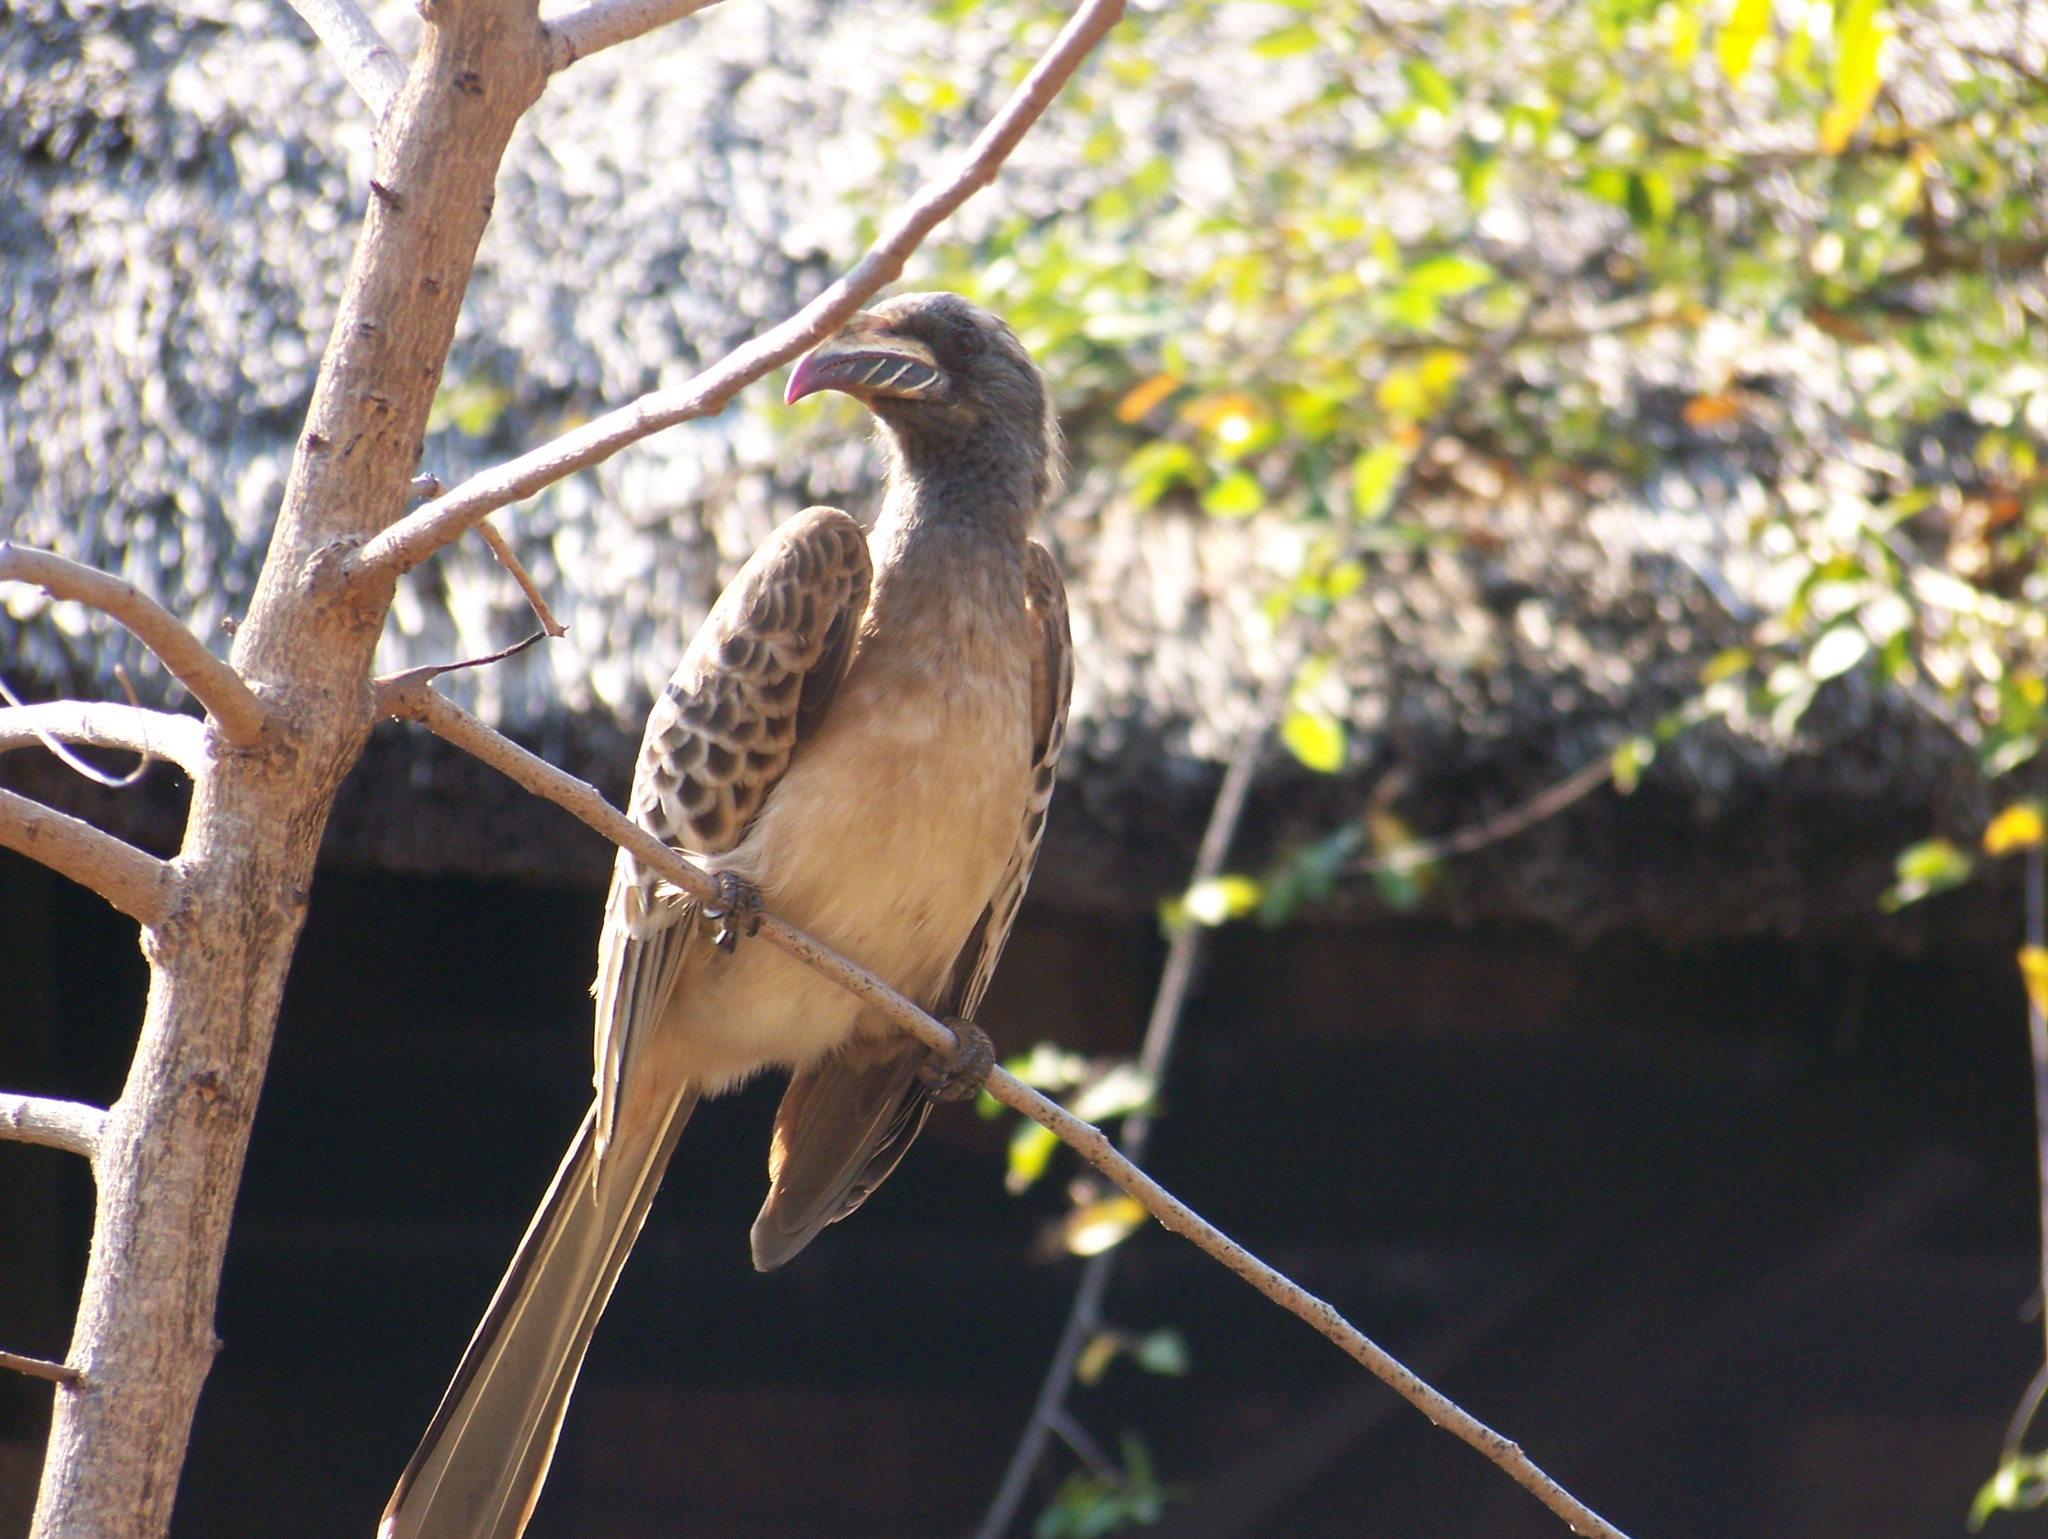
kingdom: Animalia
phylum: Chordata
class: Aves
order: Bucerotiformes
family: Bucerotidae
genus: Lophoceros
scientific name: Lophoceros nasutus
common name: African grey hornbill
